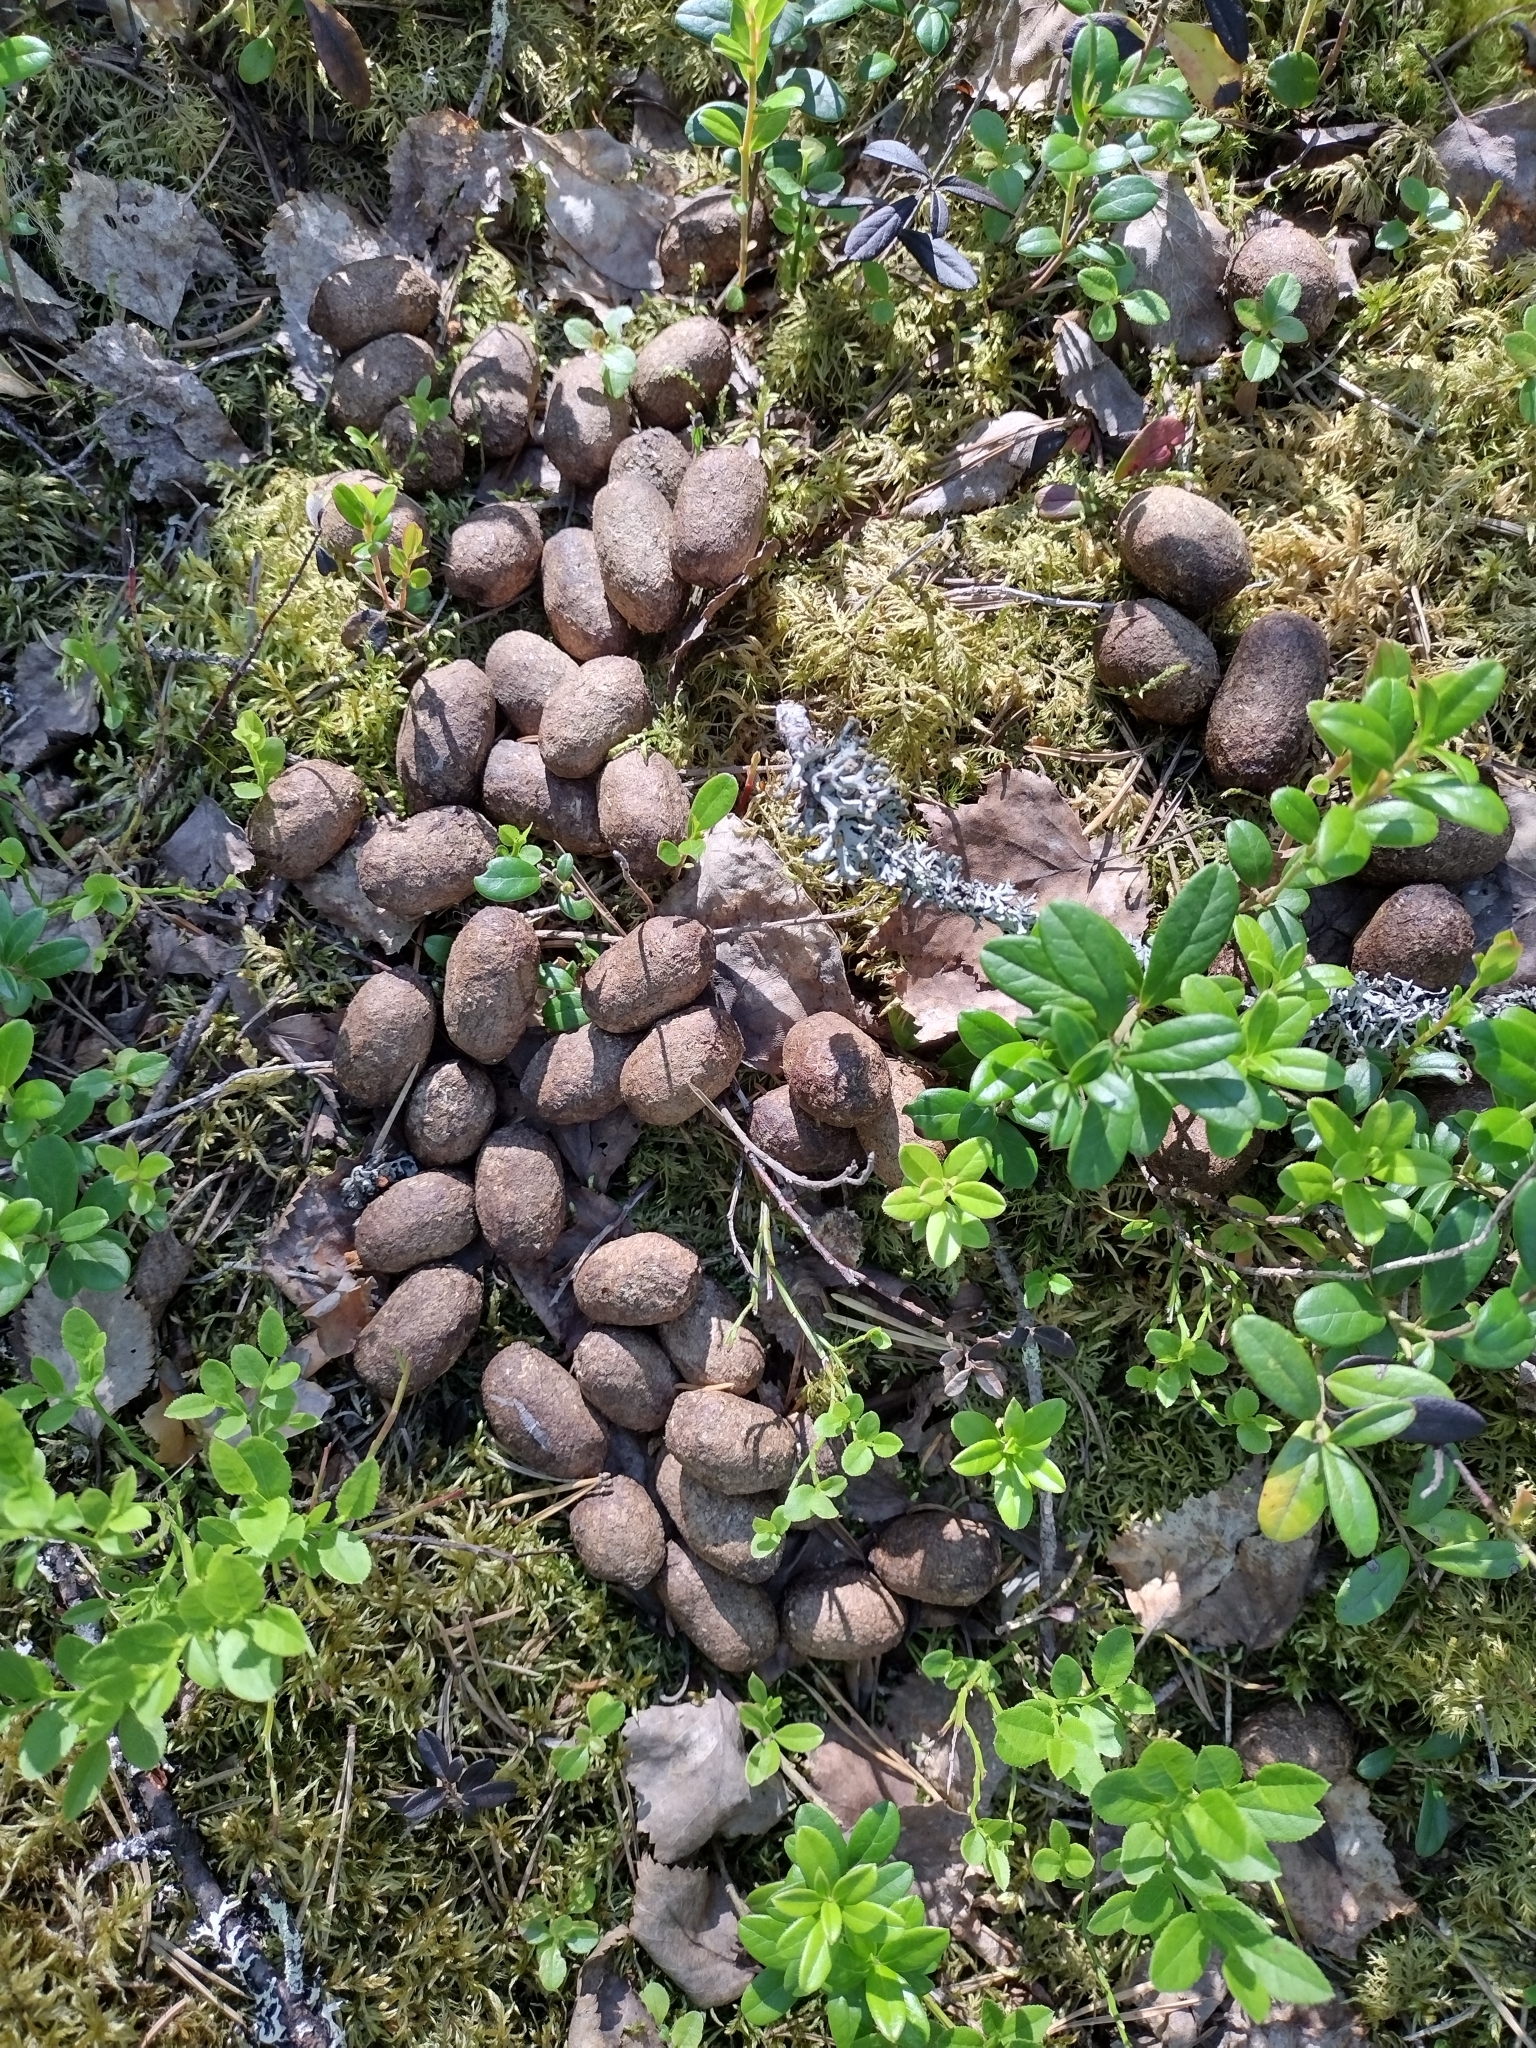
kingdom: Animalia
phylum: Chordata
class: Mammalia
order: Artiodactyla
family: Cervidae
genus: Alces
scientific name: Alces alces
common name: Moose
